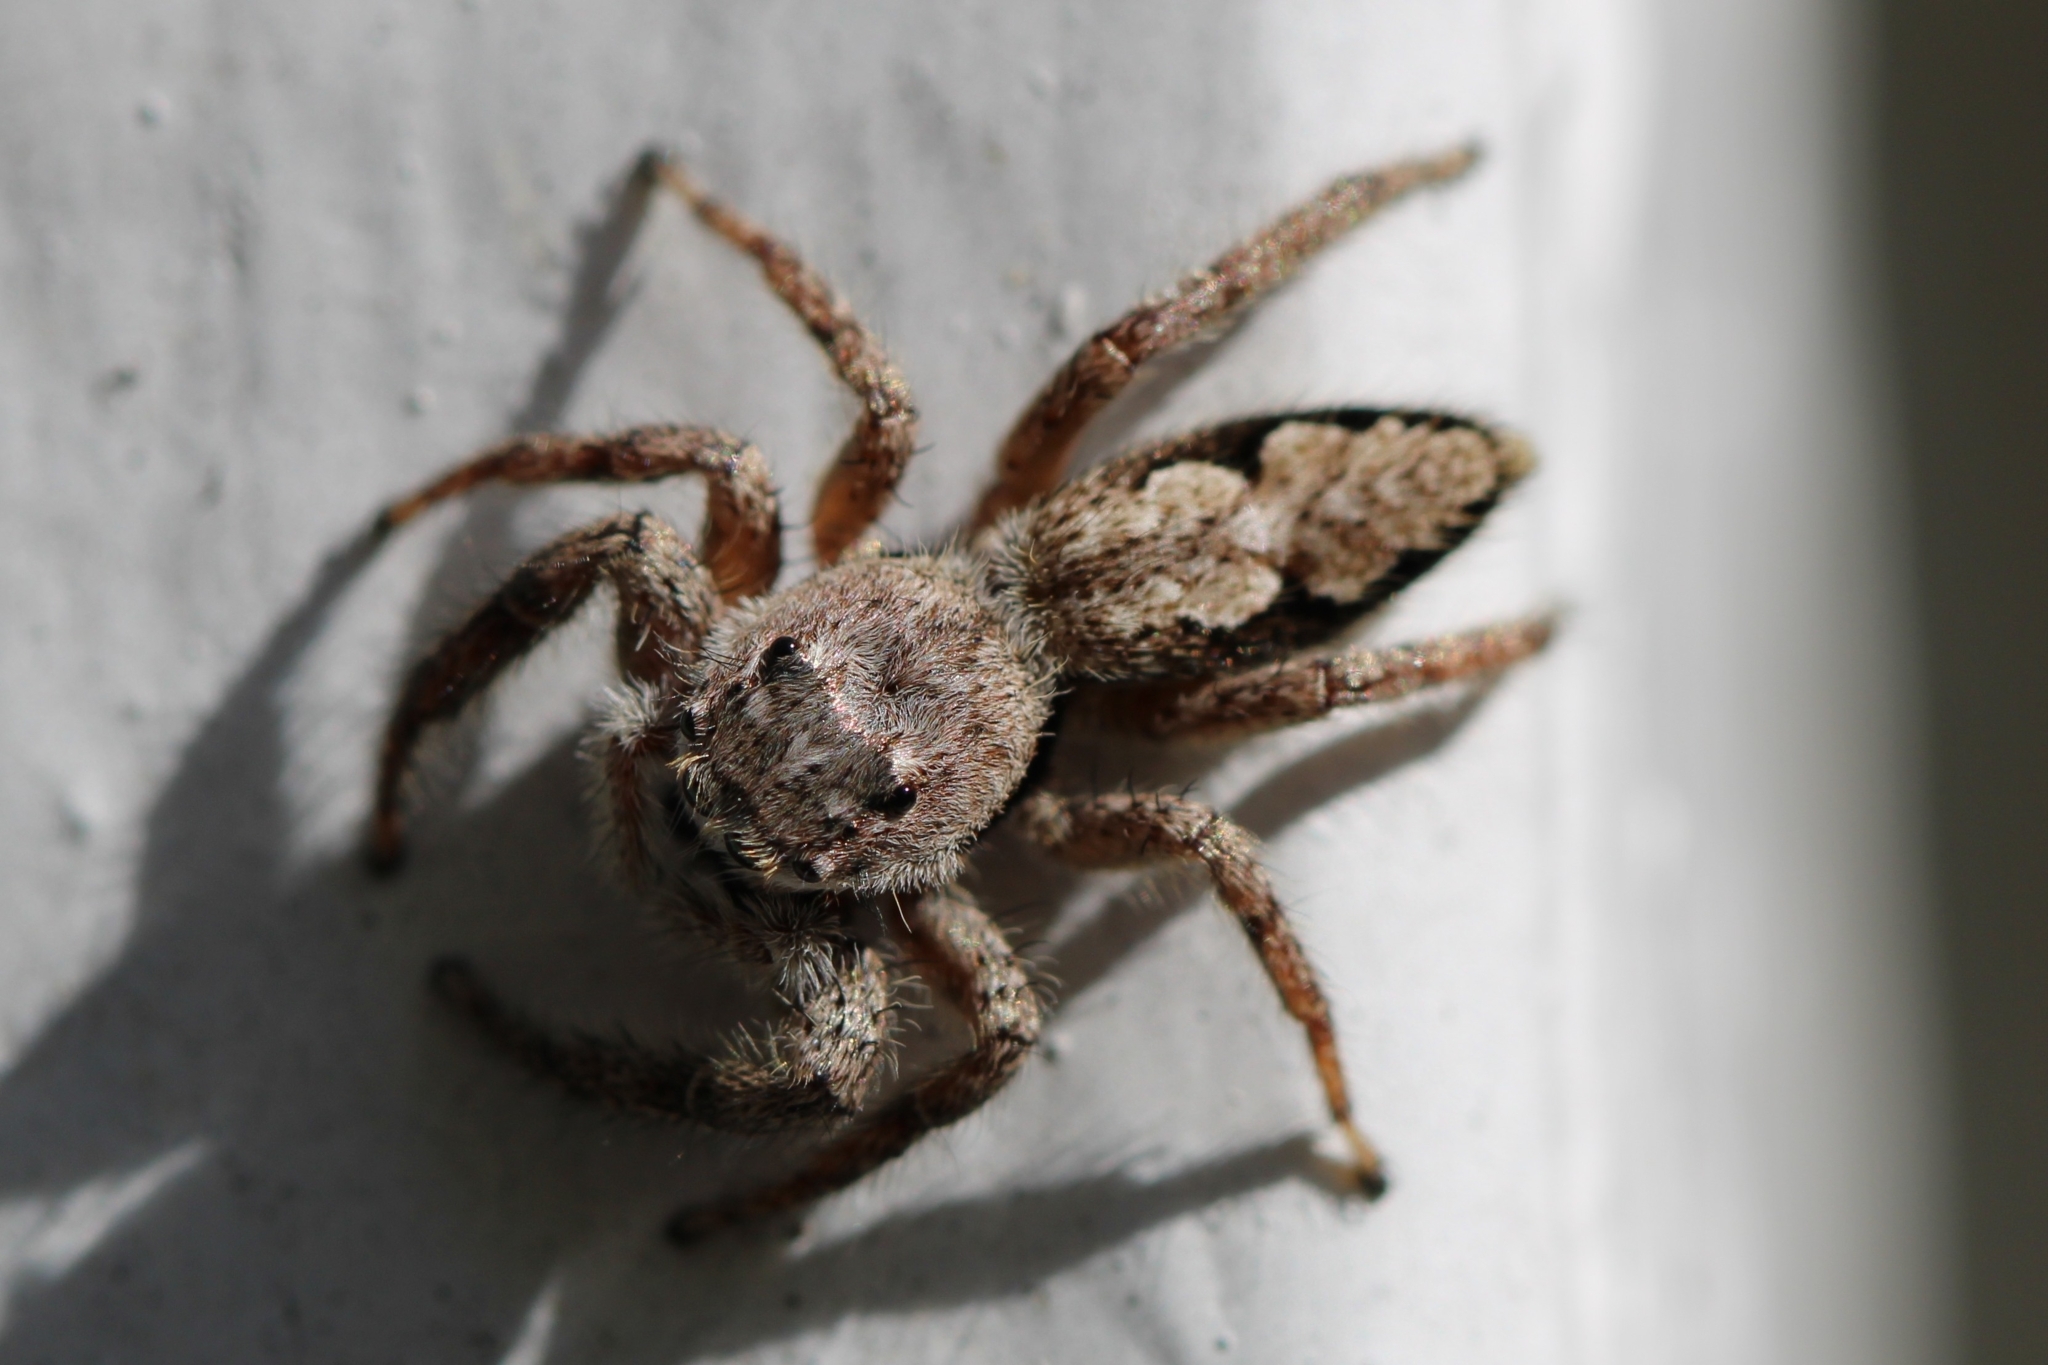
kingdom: Animalia
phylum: Arthropoda
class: Arachnida
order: Araneae
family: Salticidae
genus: Platycryptus
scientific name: Platycryptus undatus
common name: Tan jumping spider
